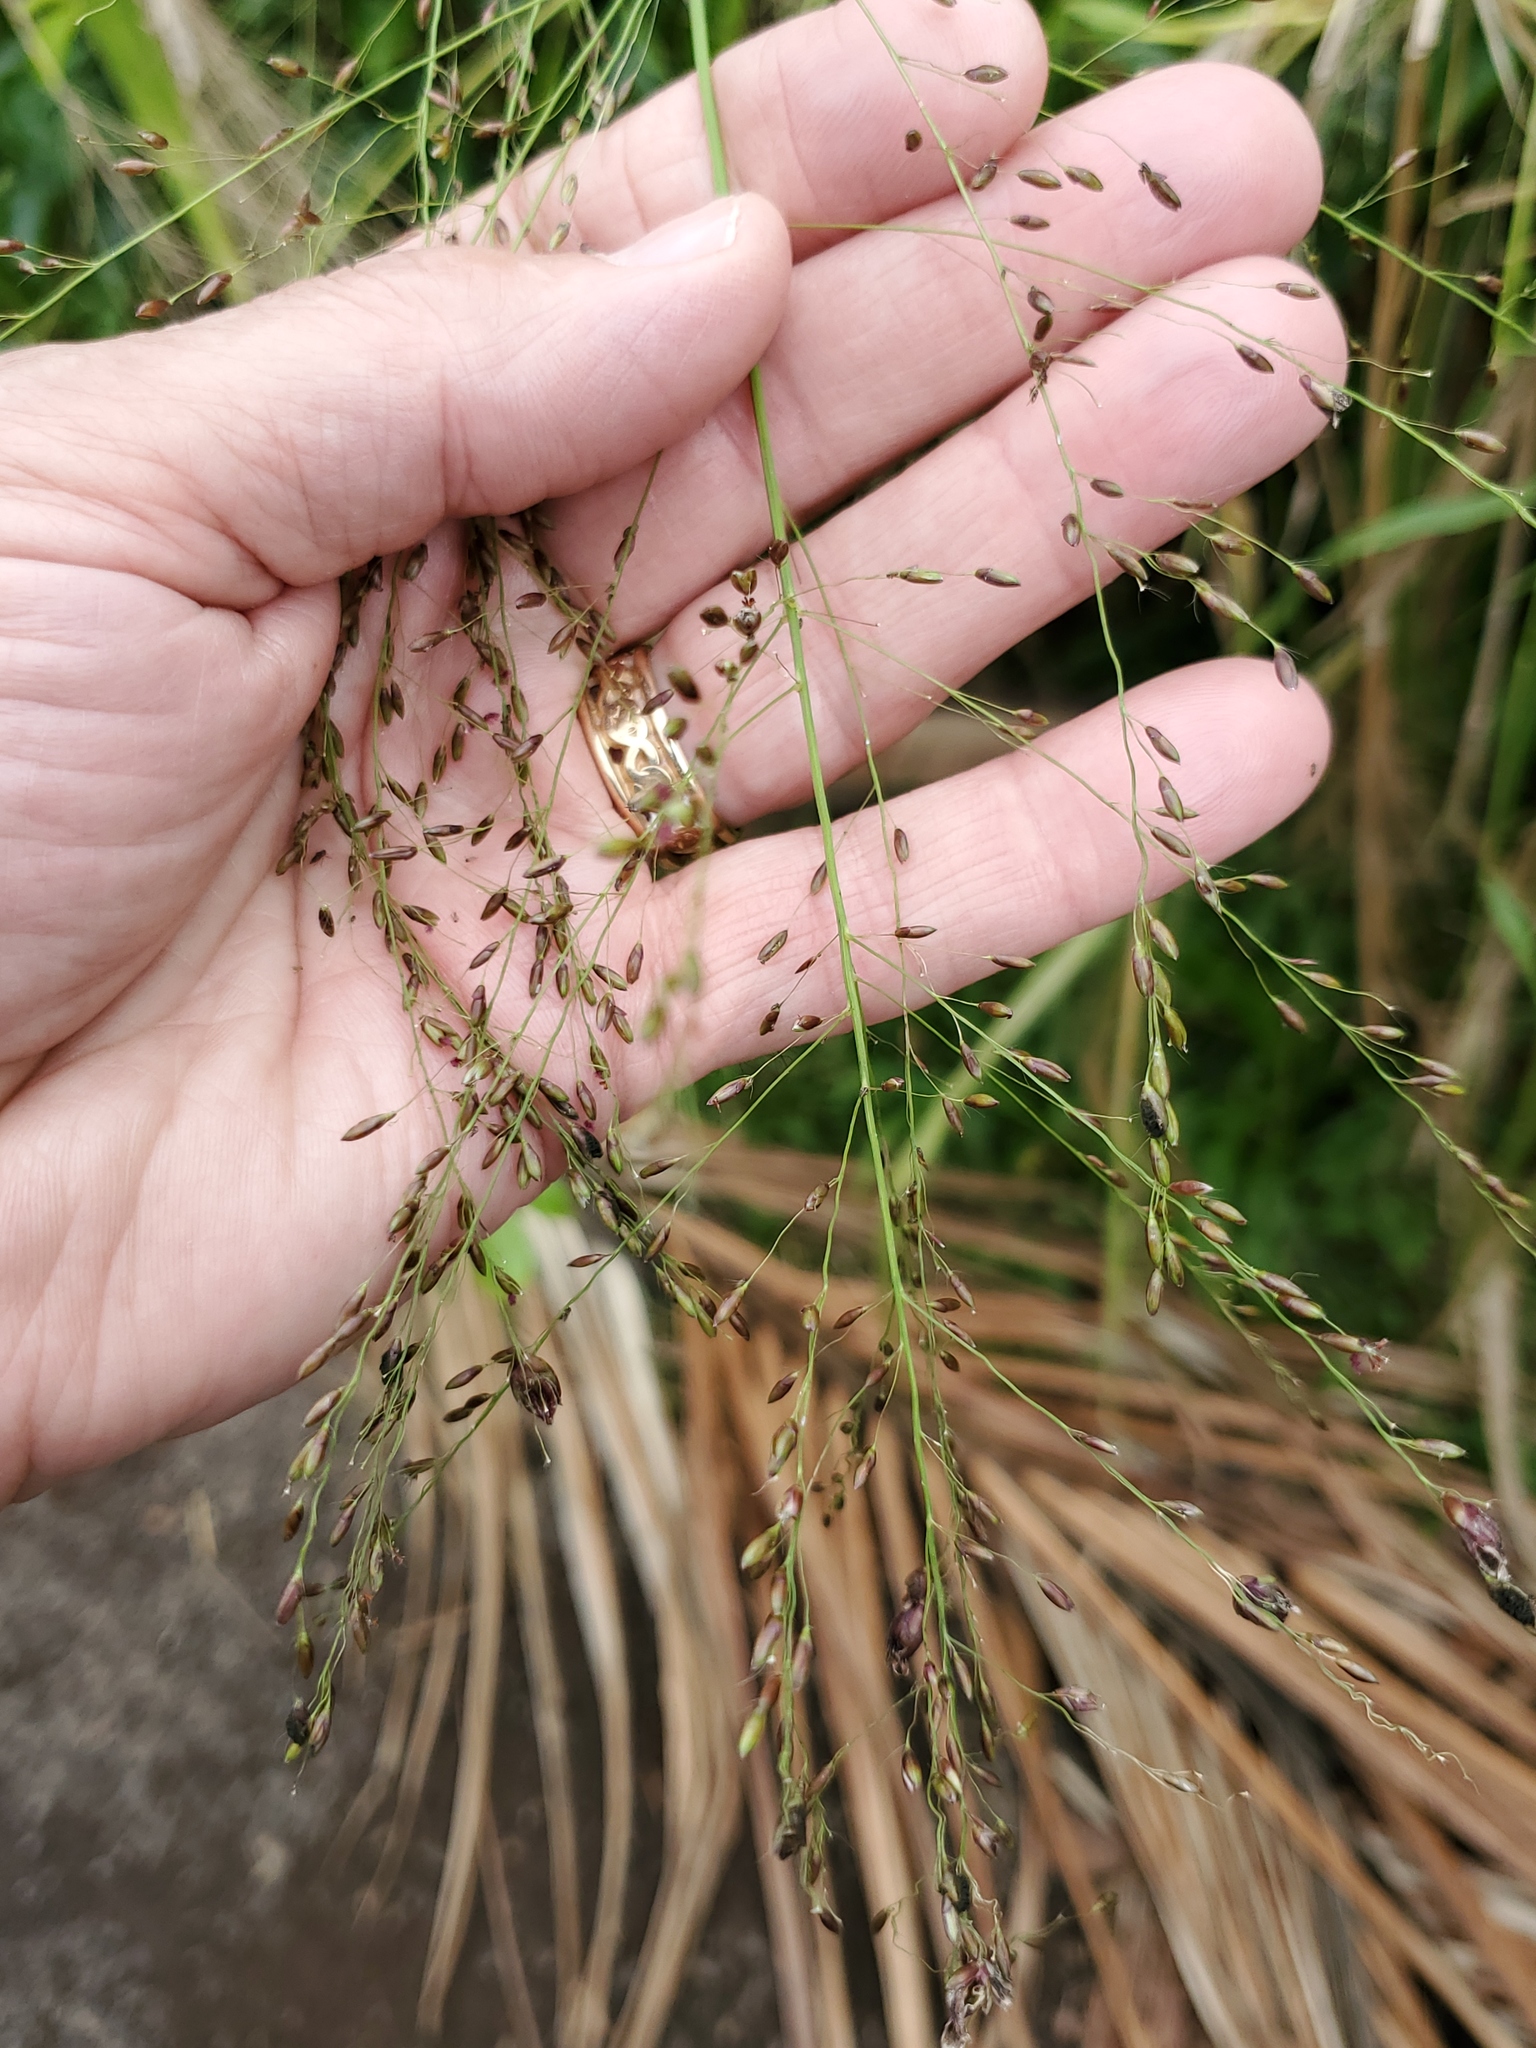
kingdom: Plantae
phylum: Tracheophyta
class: Liliopsida
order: Poales
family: Poaceae
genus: Megathyrsus
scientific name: Megathyrsus maximus
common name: Guineagrass
